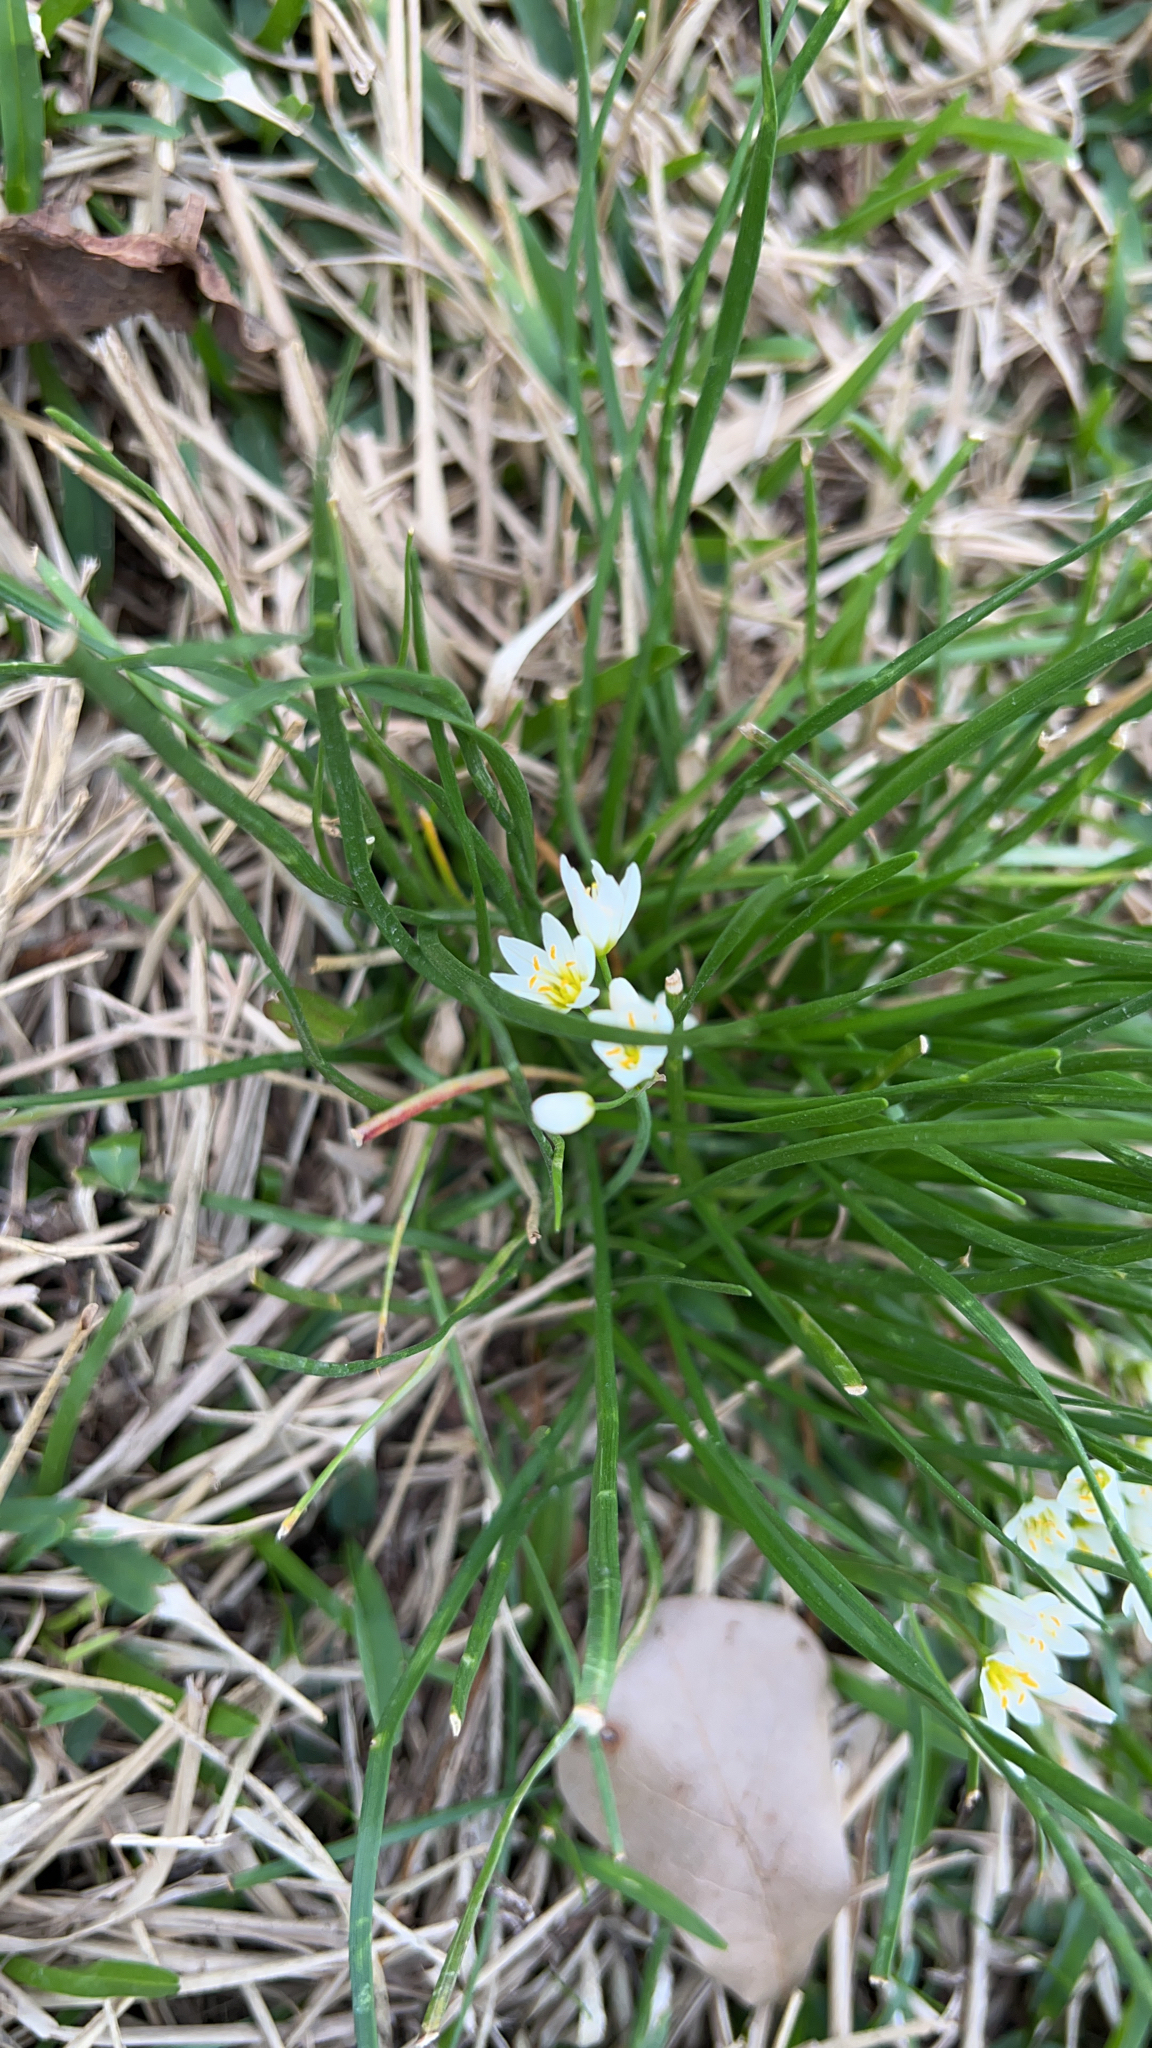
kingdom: Plantae
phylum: Tracheophyta
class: Liliopsida
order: Asparagales
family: Amaryllidaceae
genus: Nothoscordum
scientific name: Nothoscordum bivalve
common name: Crow-poison
